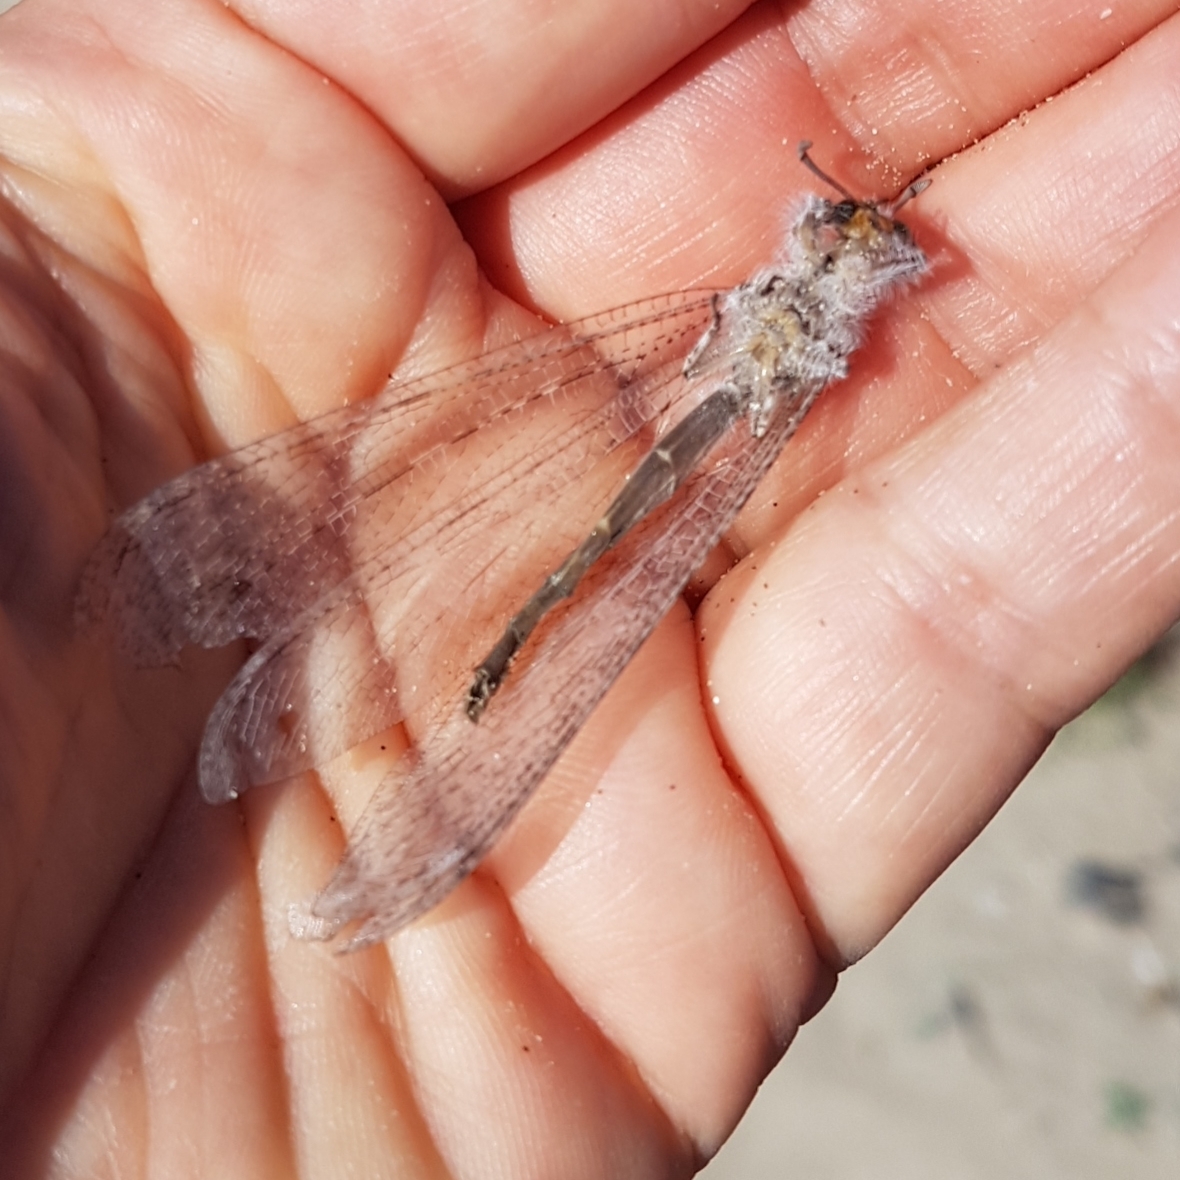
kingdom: Animalia
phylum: Arthropoda
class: Insecta
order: Neuroptera
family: Myrmeleontidae
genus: Synclisis
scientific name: Synclisis baetica
